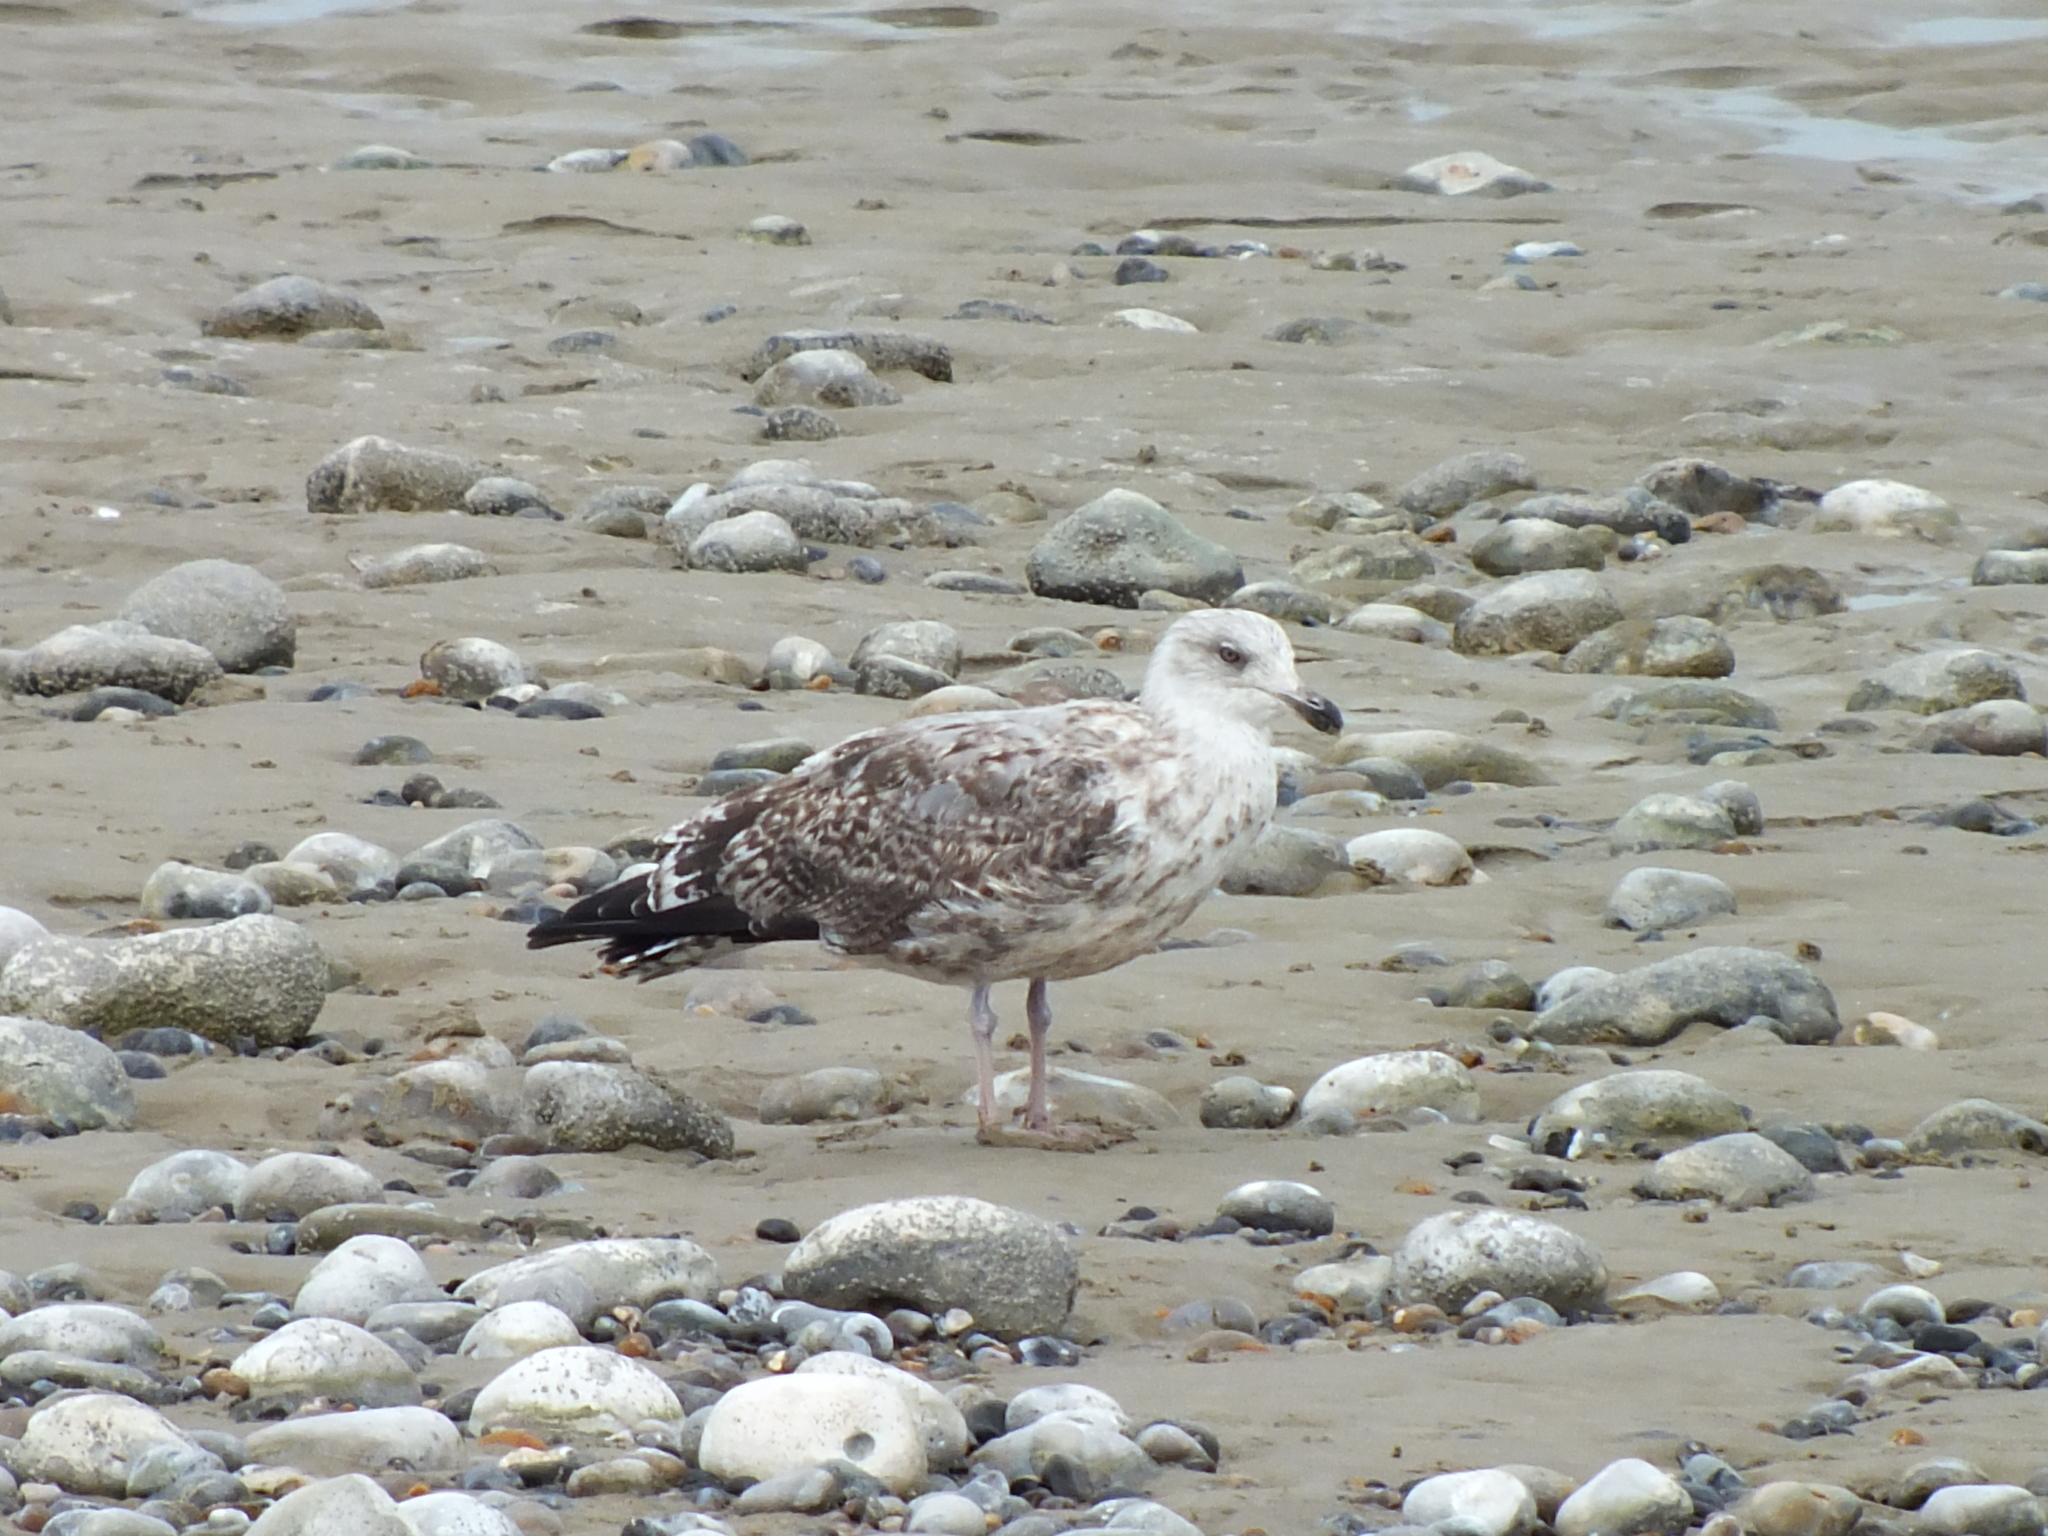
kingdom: Animalia
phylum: Chordata
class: Aves
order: Charadriiformes
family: Laridae
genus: Larus
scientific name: Larus argentatus
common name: Herring gull
